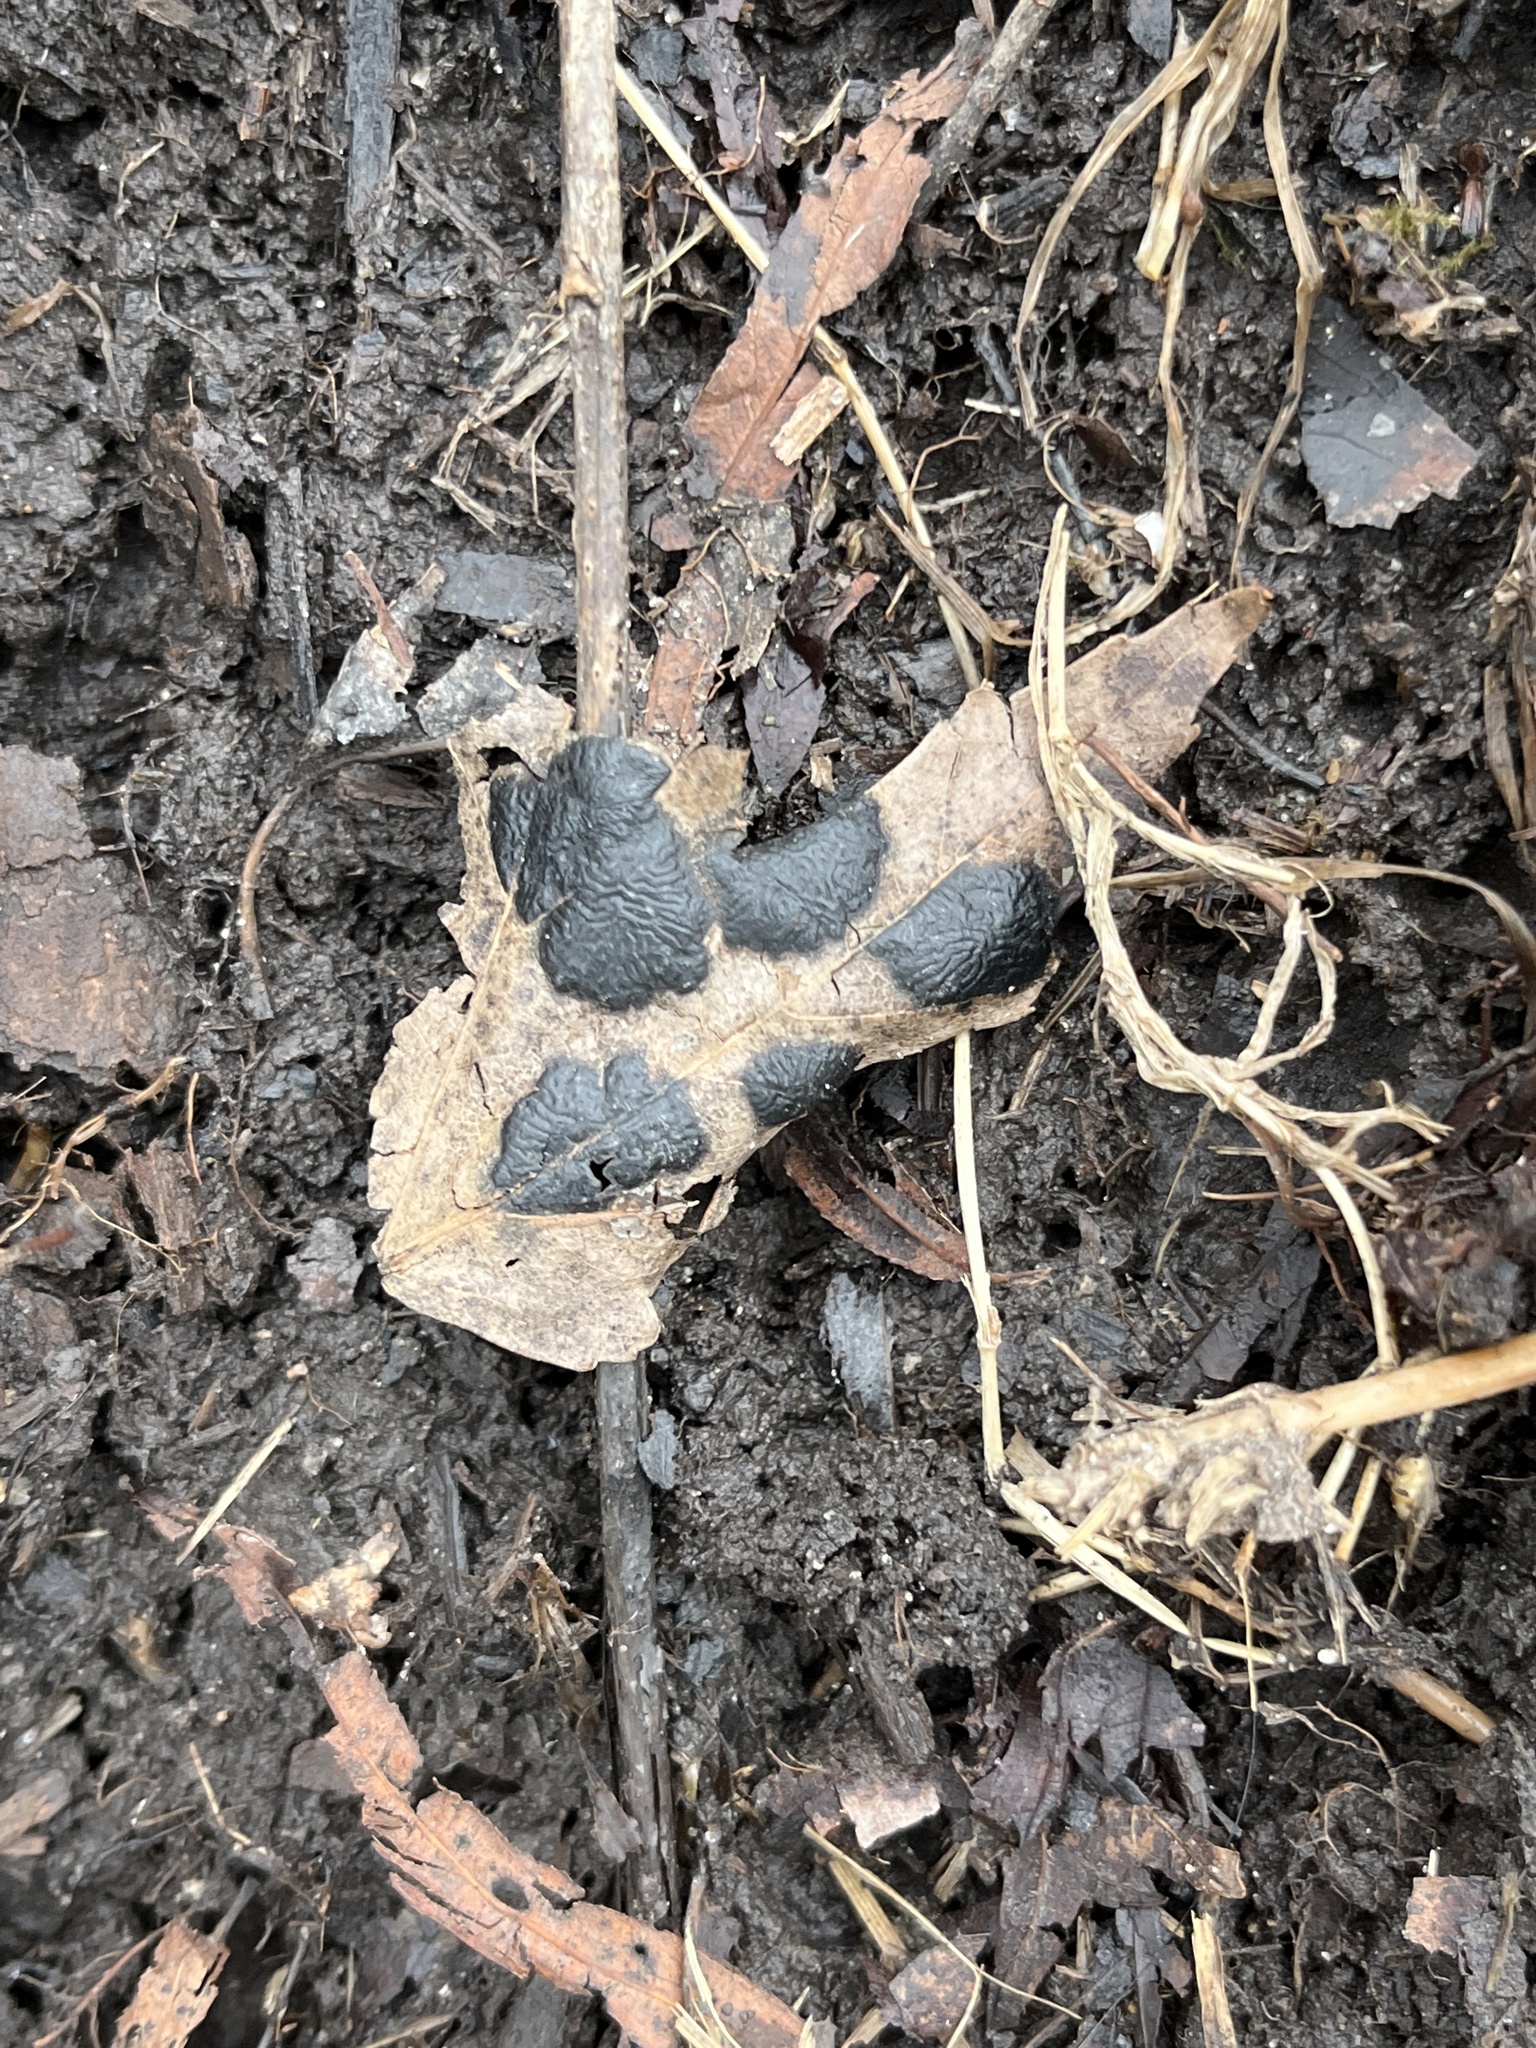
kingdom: Fungi
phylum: Ascomycota
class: Leotiomycetes
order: Rhytismatales
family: Rhytismataceae
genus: Rhytisma
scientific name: Rhytisma americanum
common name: American tar spot
